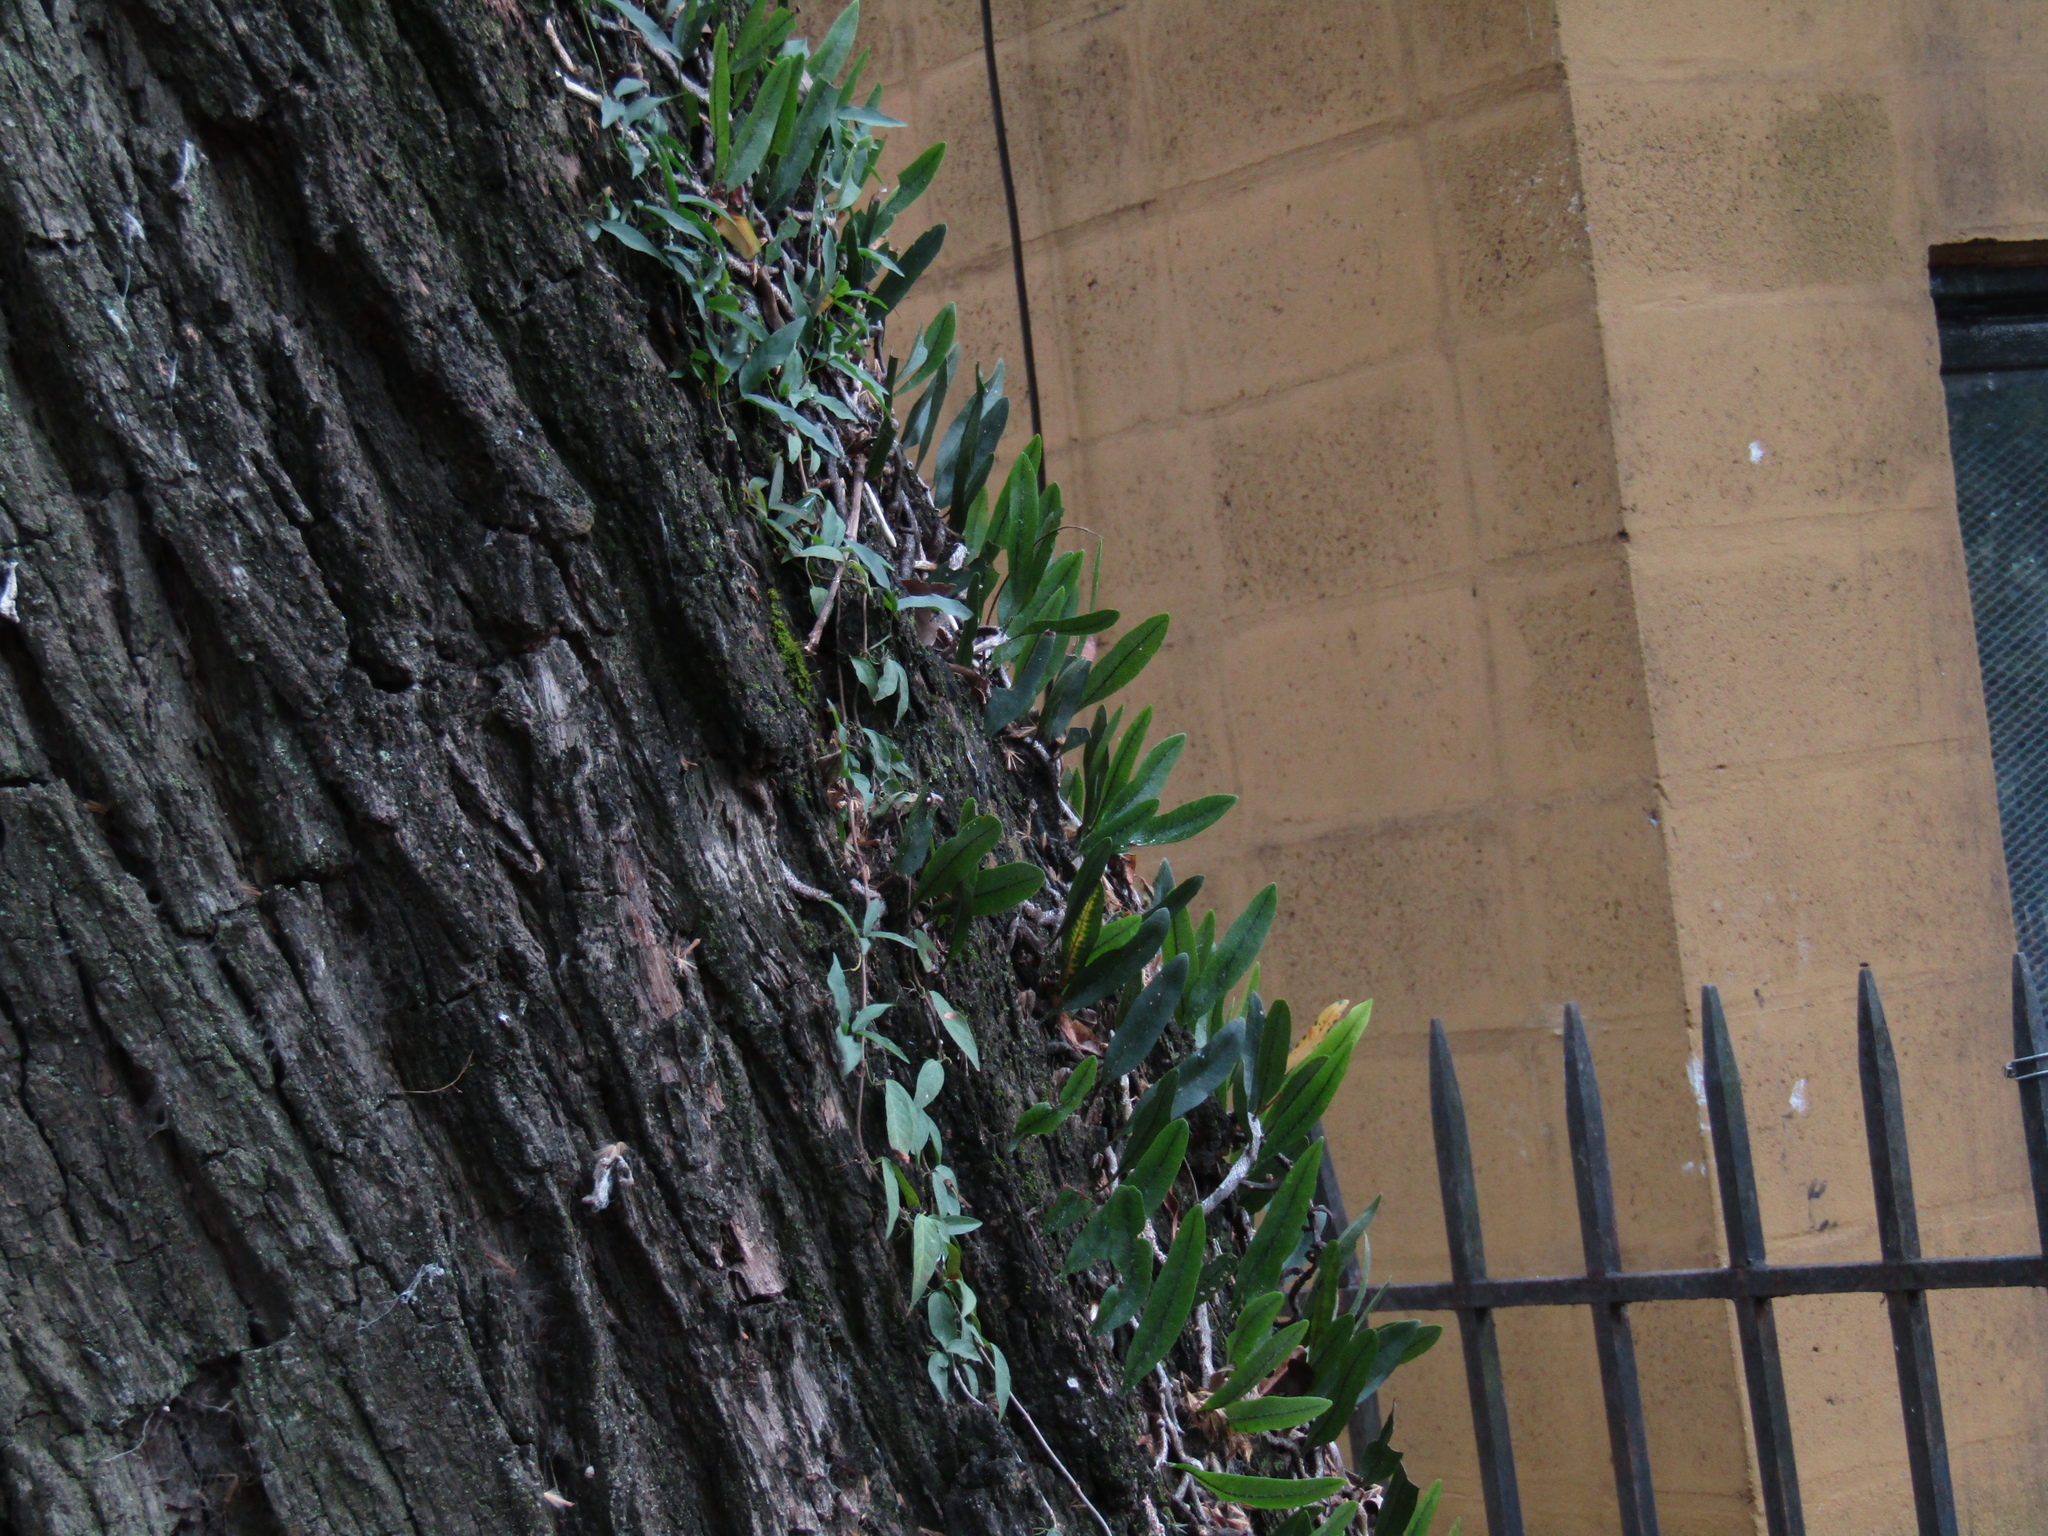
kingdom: Plantae
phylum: Tracheophyta
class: Polypodiopsida
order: Polypodiales
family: Polypodiaceae
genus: Microgramma
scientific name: Microgramma mortoniana
